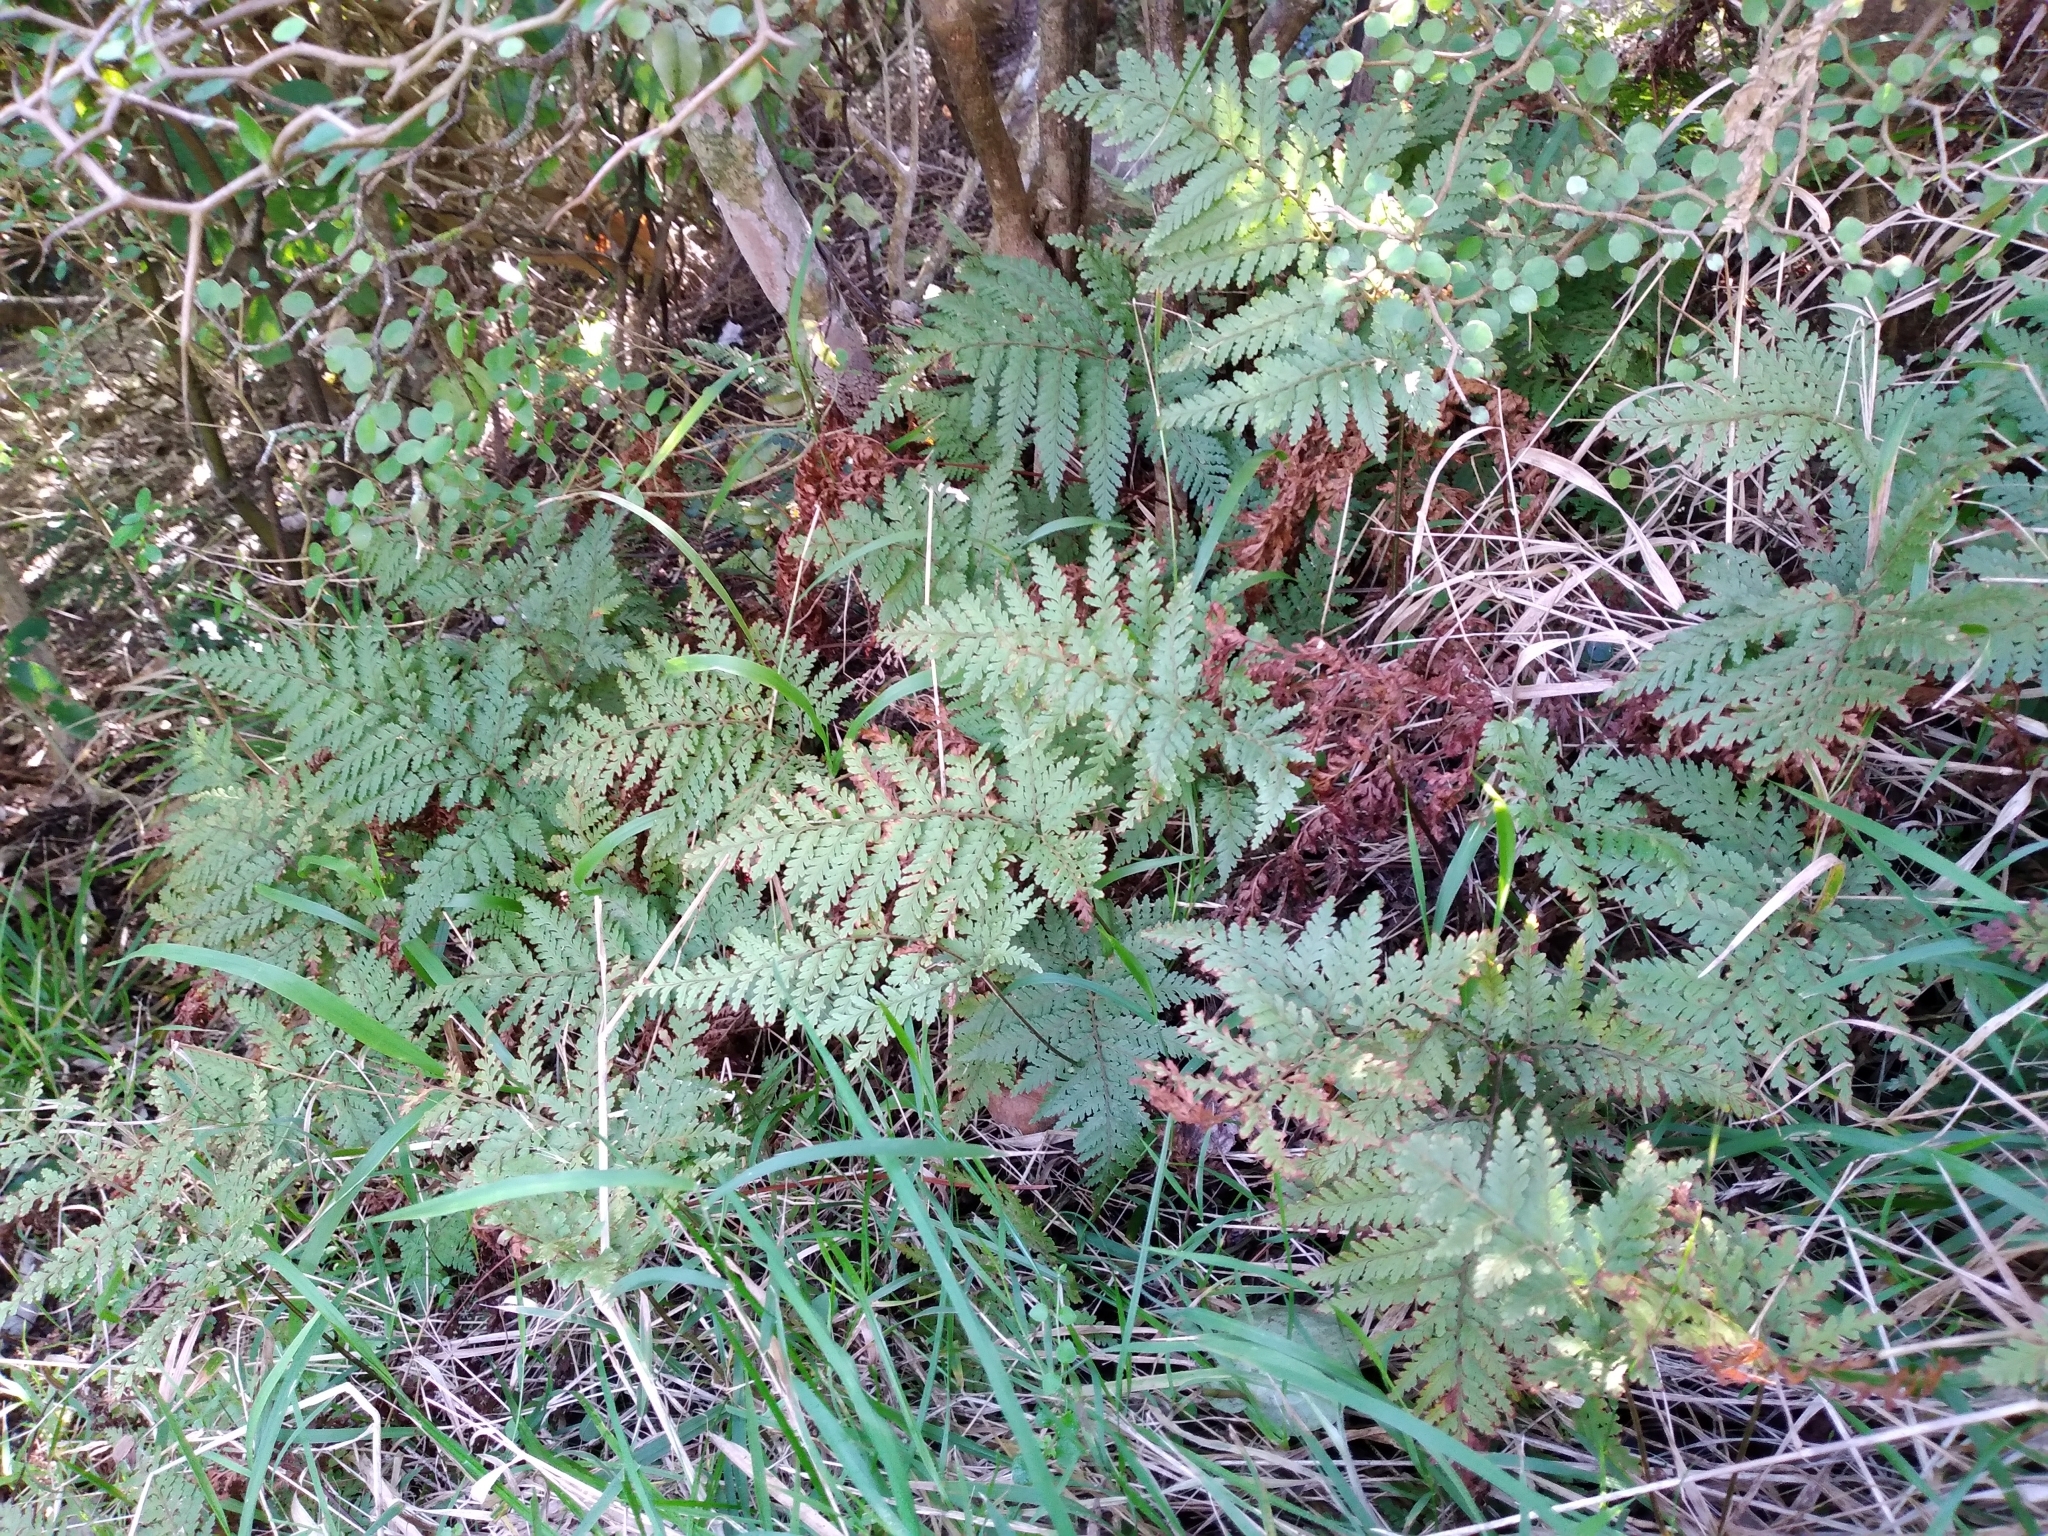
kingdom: Plantae
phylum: Tracheophyta
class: Polypodiopsida
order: Polypodiales
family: Dryopteridaceae
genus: Parapolystichum
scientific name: Parapolystichum microsorum
